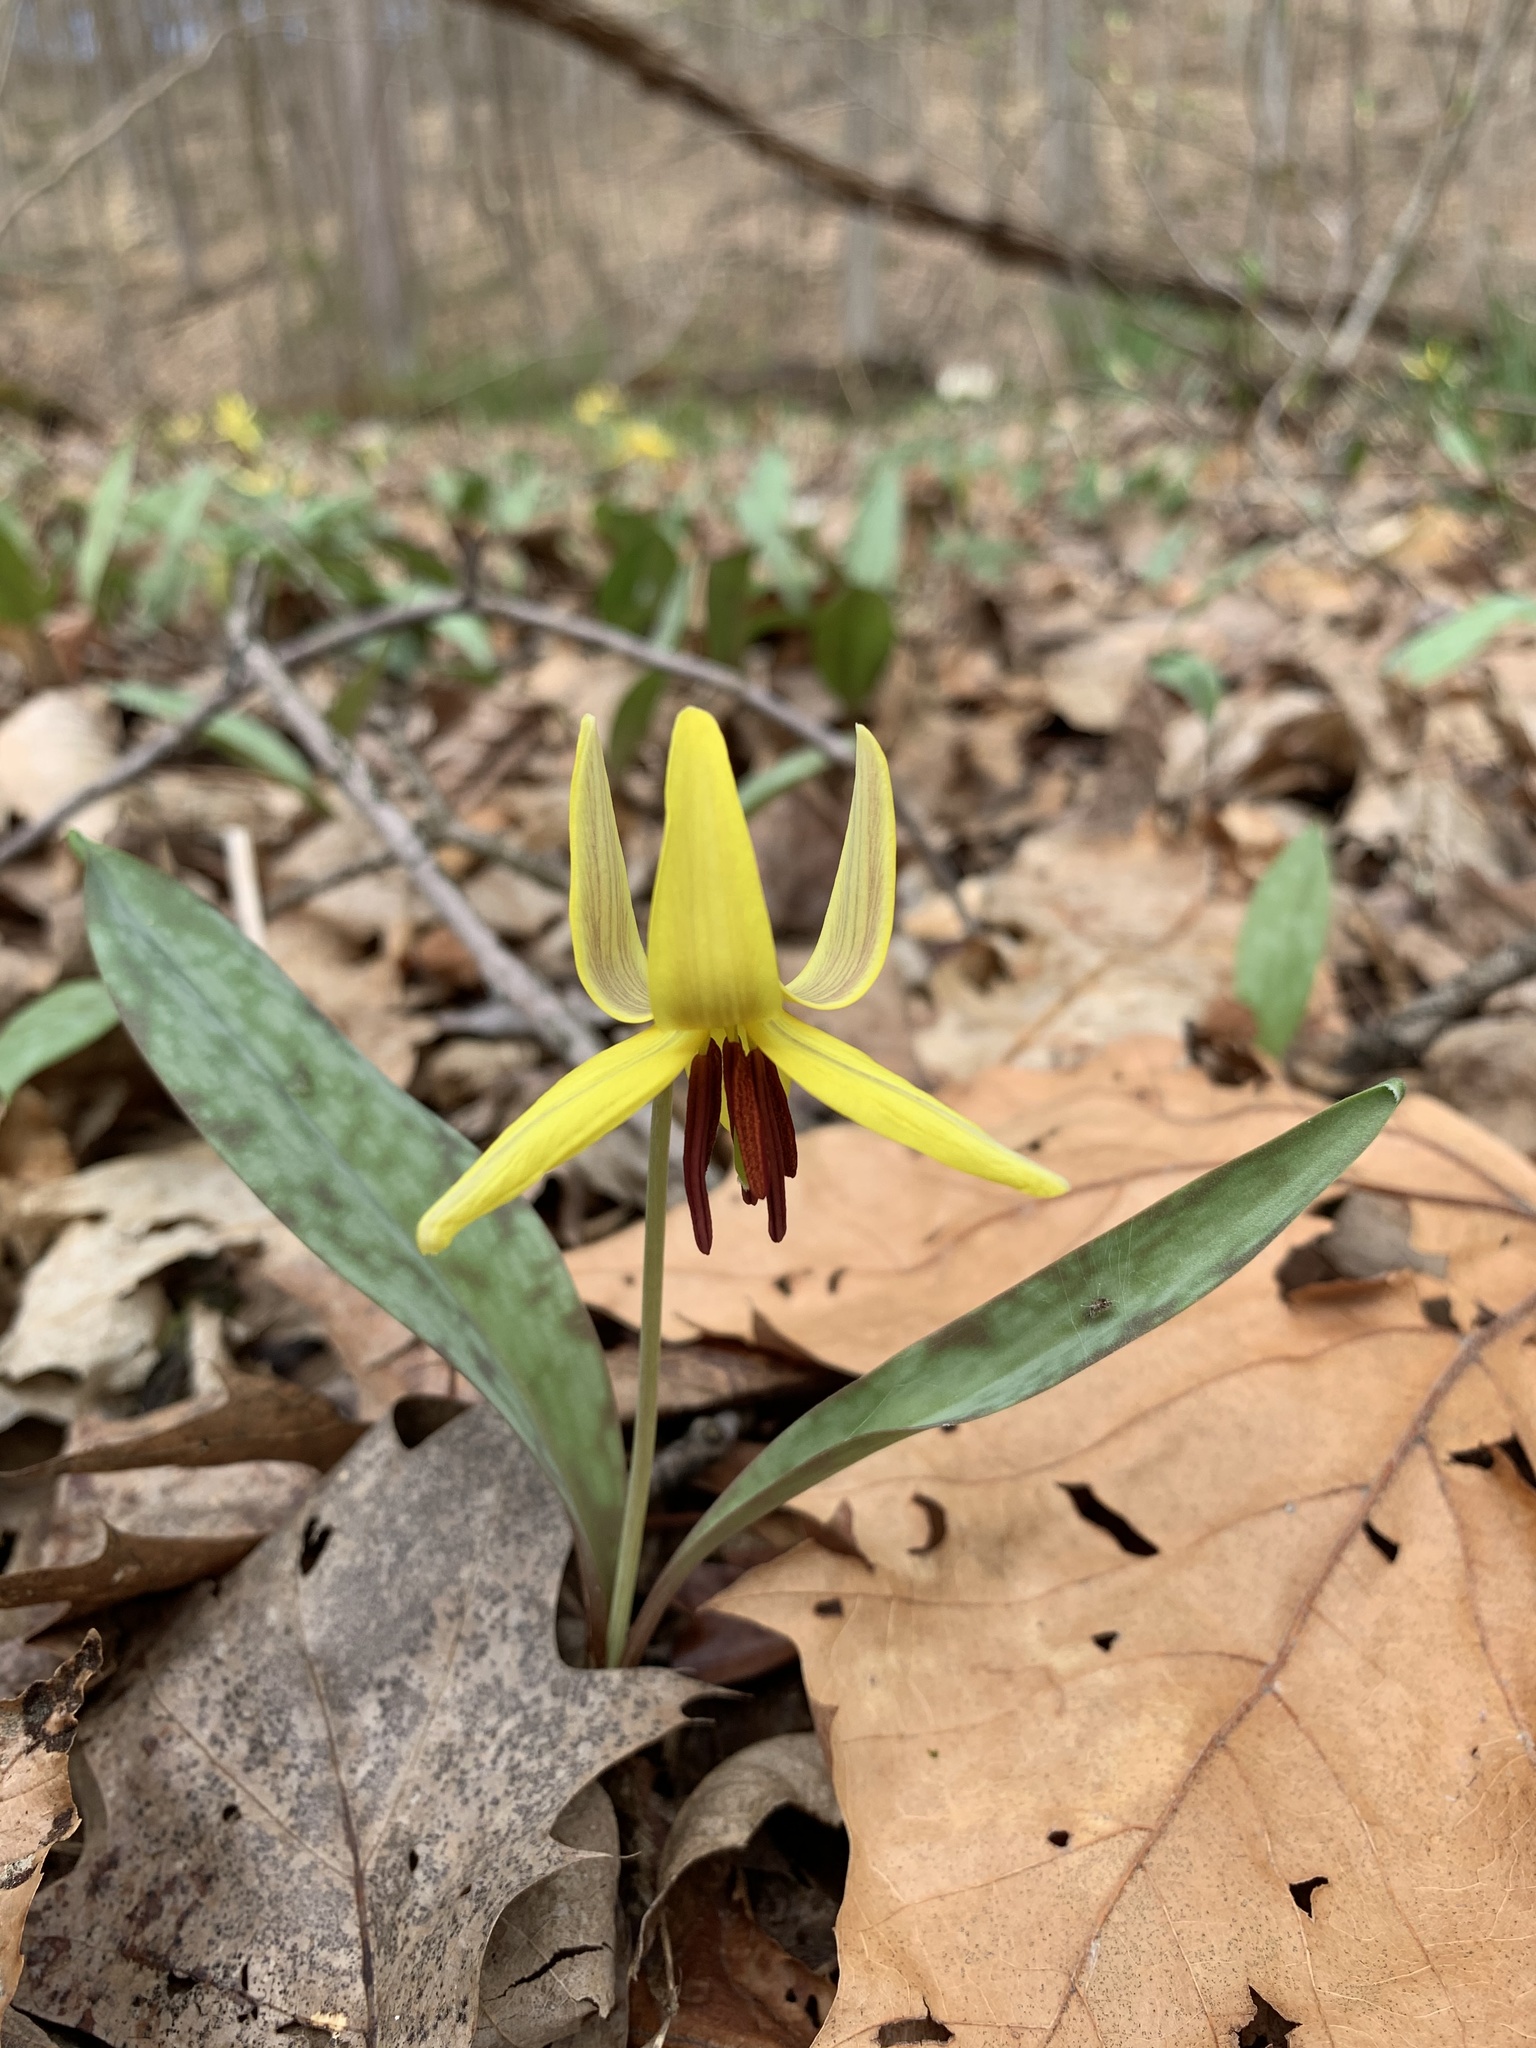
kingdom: Plantae
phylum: Tracheophyta
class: Liliopsida
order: Liliales
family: Liliaceae
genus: Erythronium
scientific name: Erythronium americanum
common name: Yellow adder's-tongue
